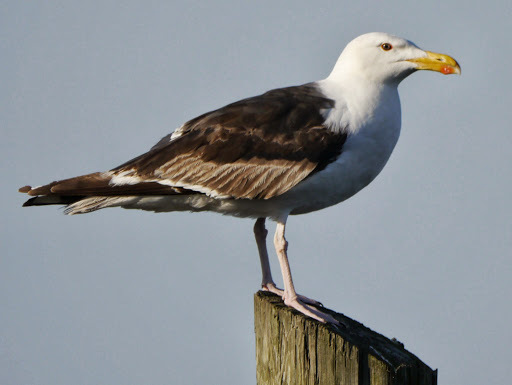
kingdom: Animalia
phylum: Chordata
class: Aves
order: Charadriiformes
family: Laridae
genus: Larus
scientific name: Larus marinus
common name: Great black-backed gull
